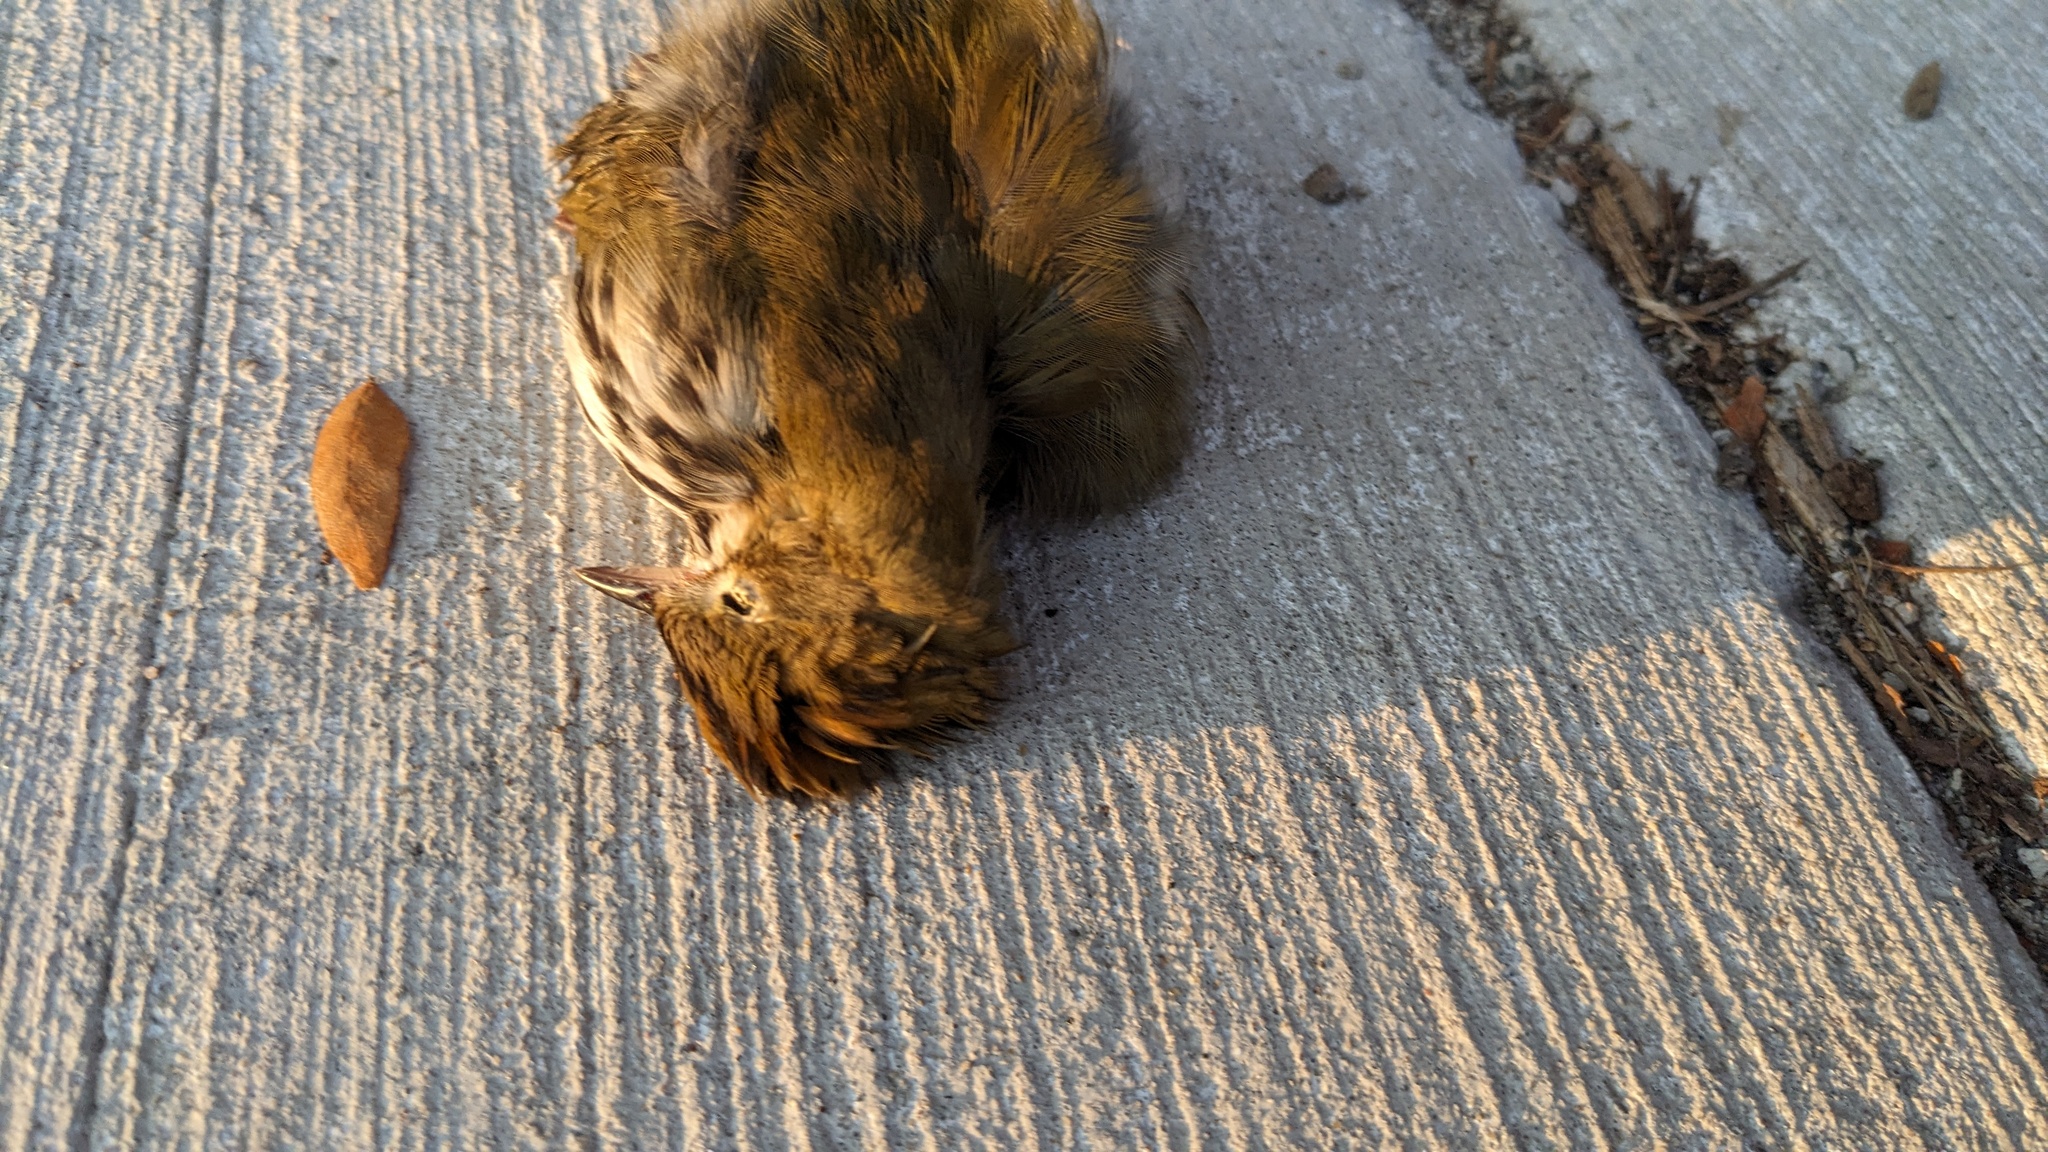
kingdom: Animalia
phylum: Chordata
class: Aves
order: Passeriformes
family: Parulidae
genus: Seiurus
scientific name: Seiurus aurocapilla
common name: Ovenbird
